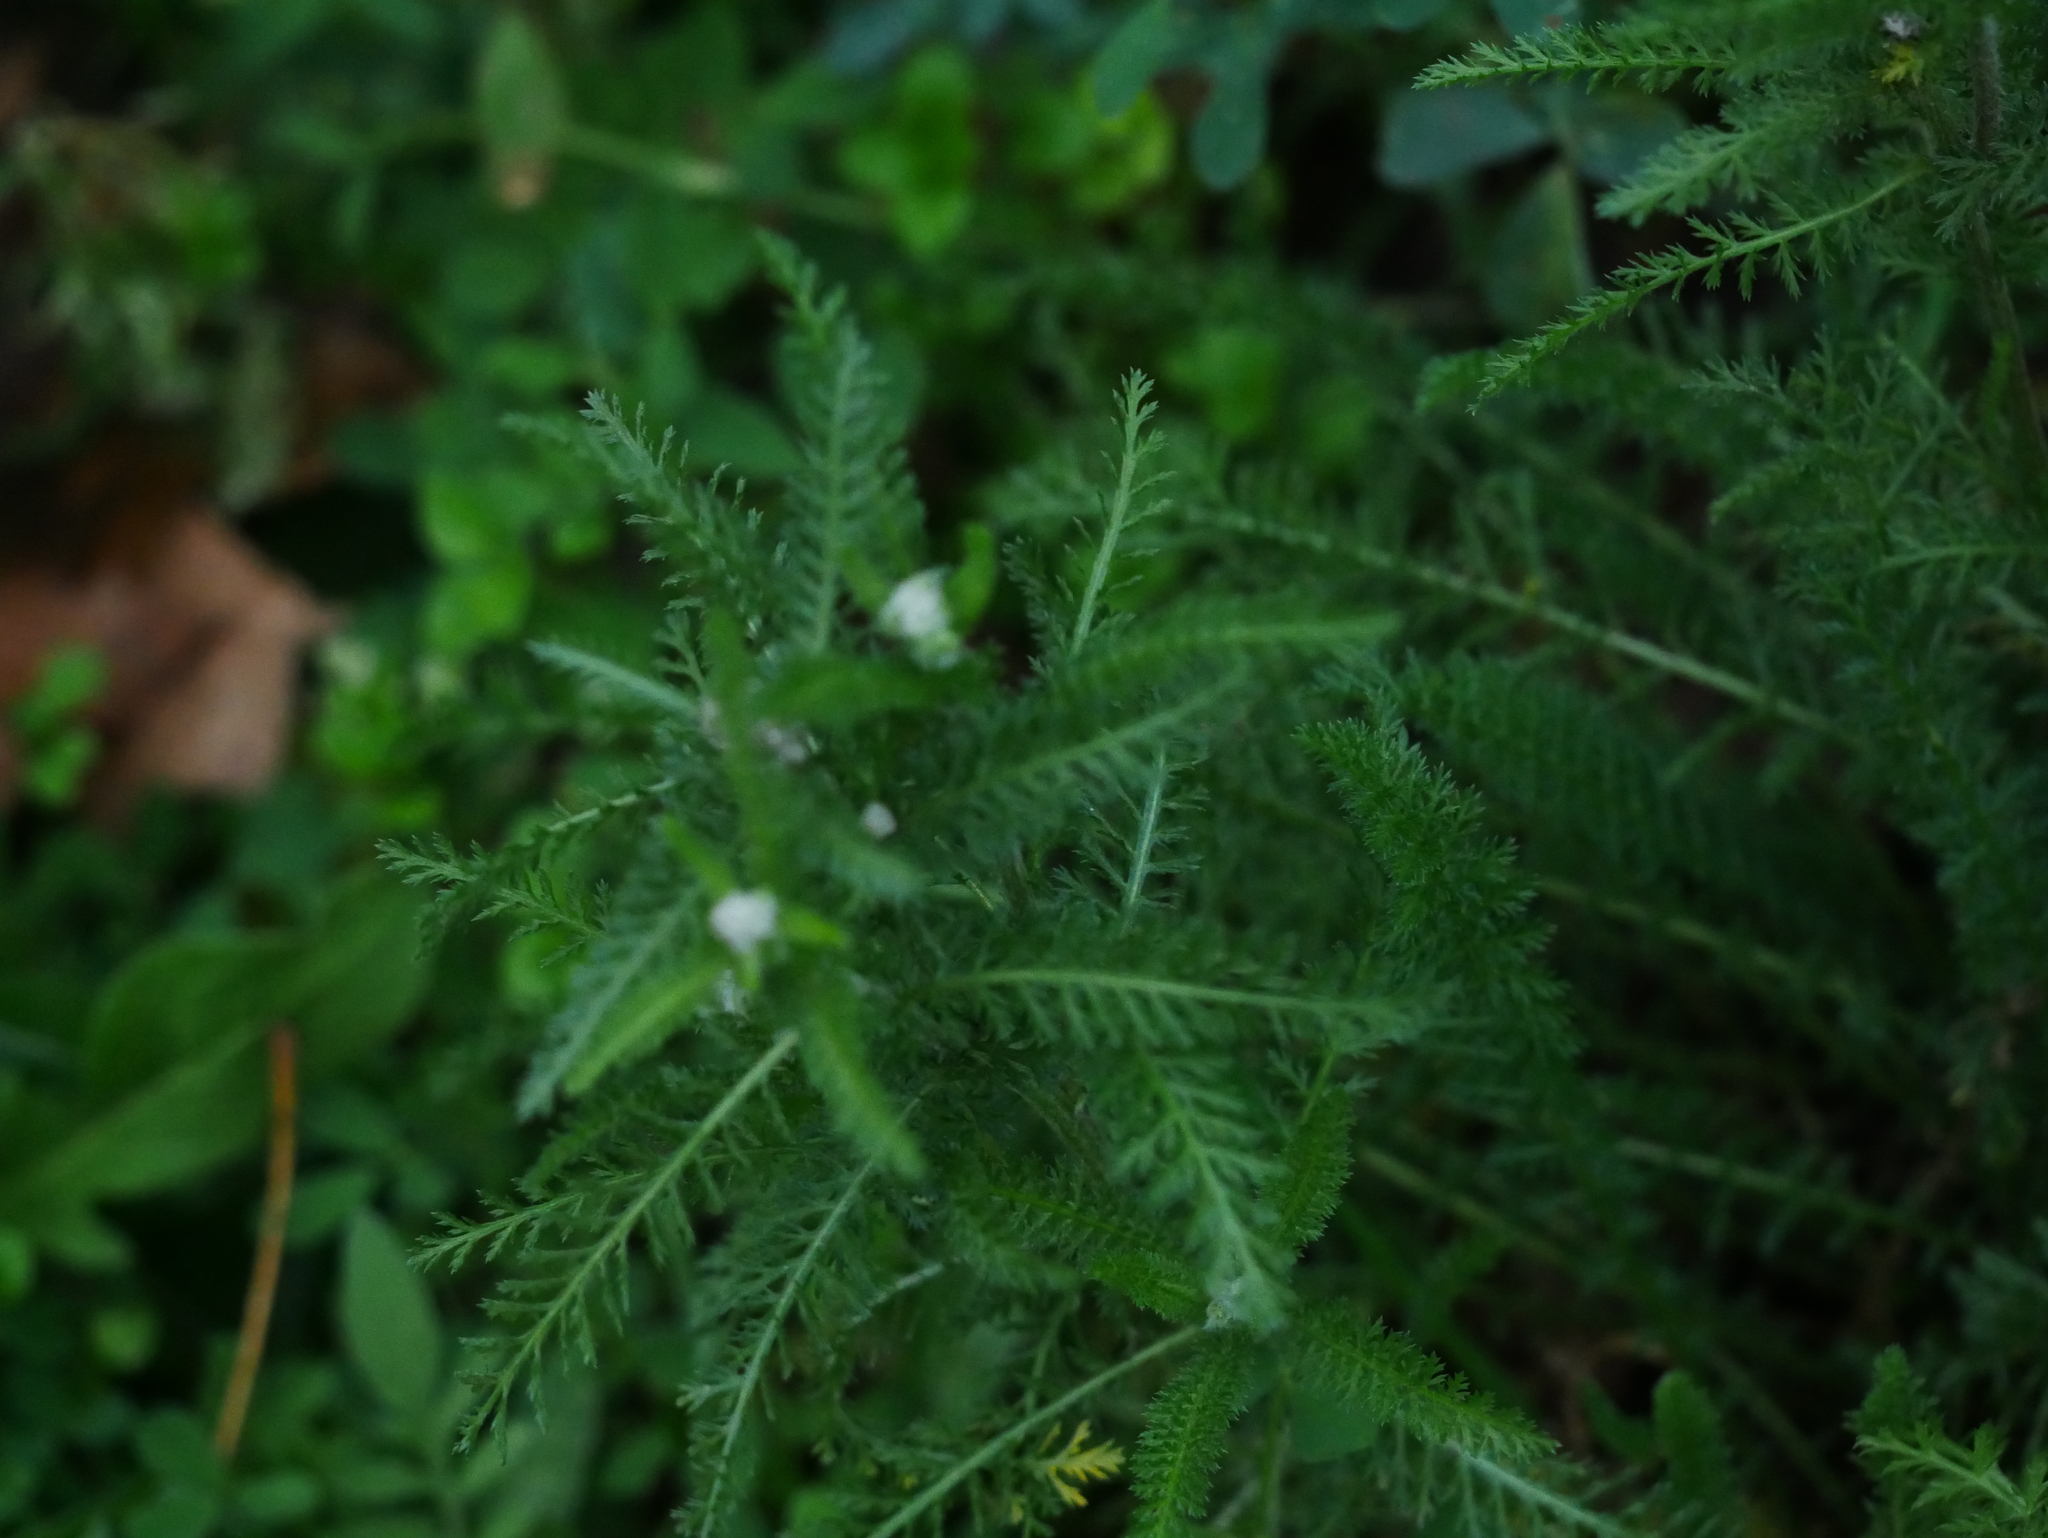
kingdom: Plantae
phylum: Tracheophyta
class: Magnoliopsida
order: Asterales
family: Asteraceae
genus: Achillea
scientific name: Achillea millefolium
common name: Yarrow
